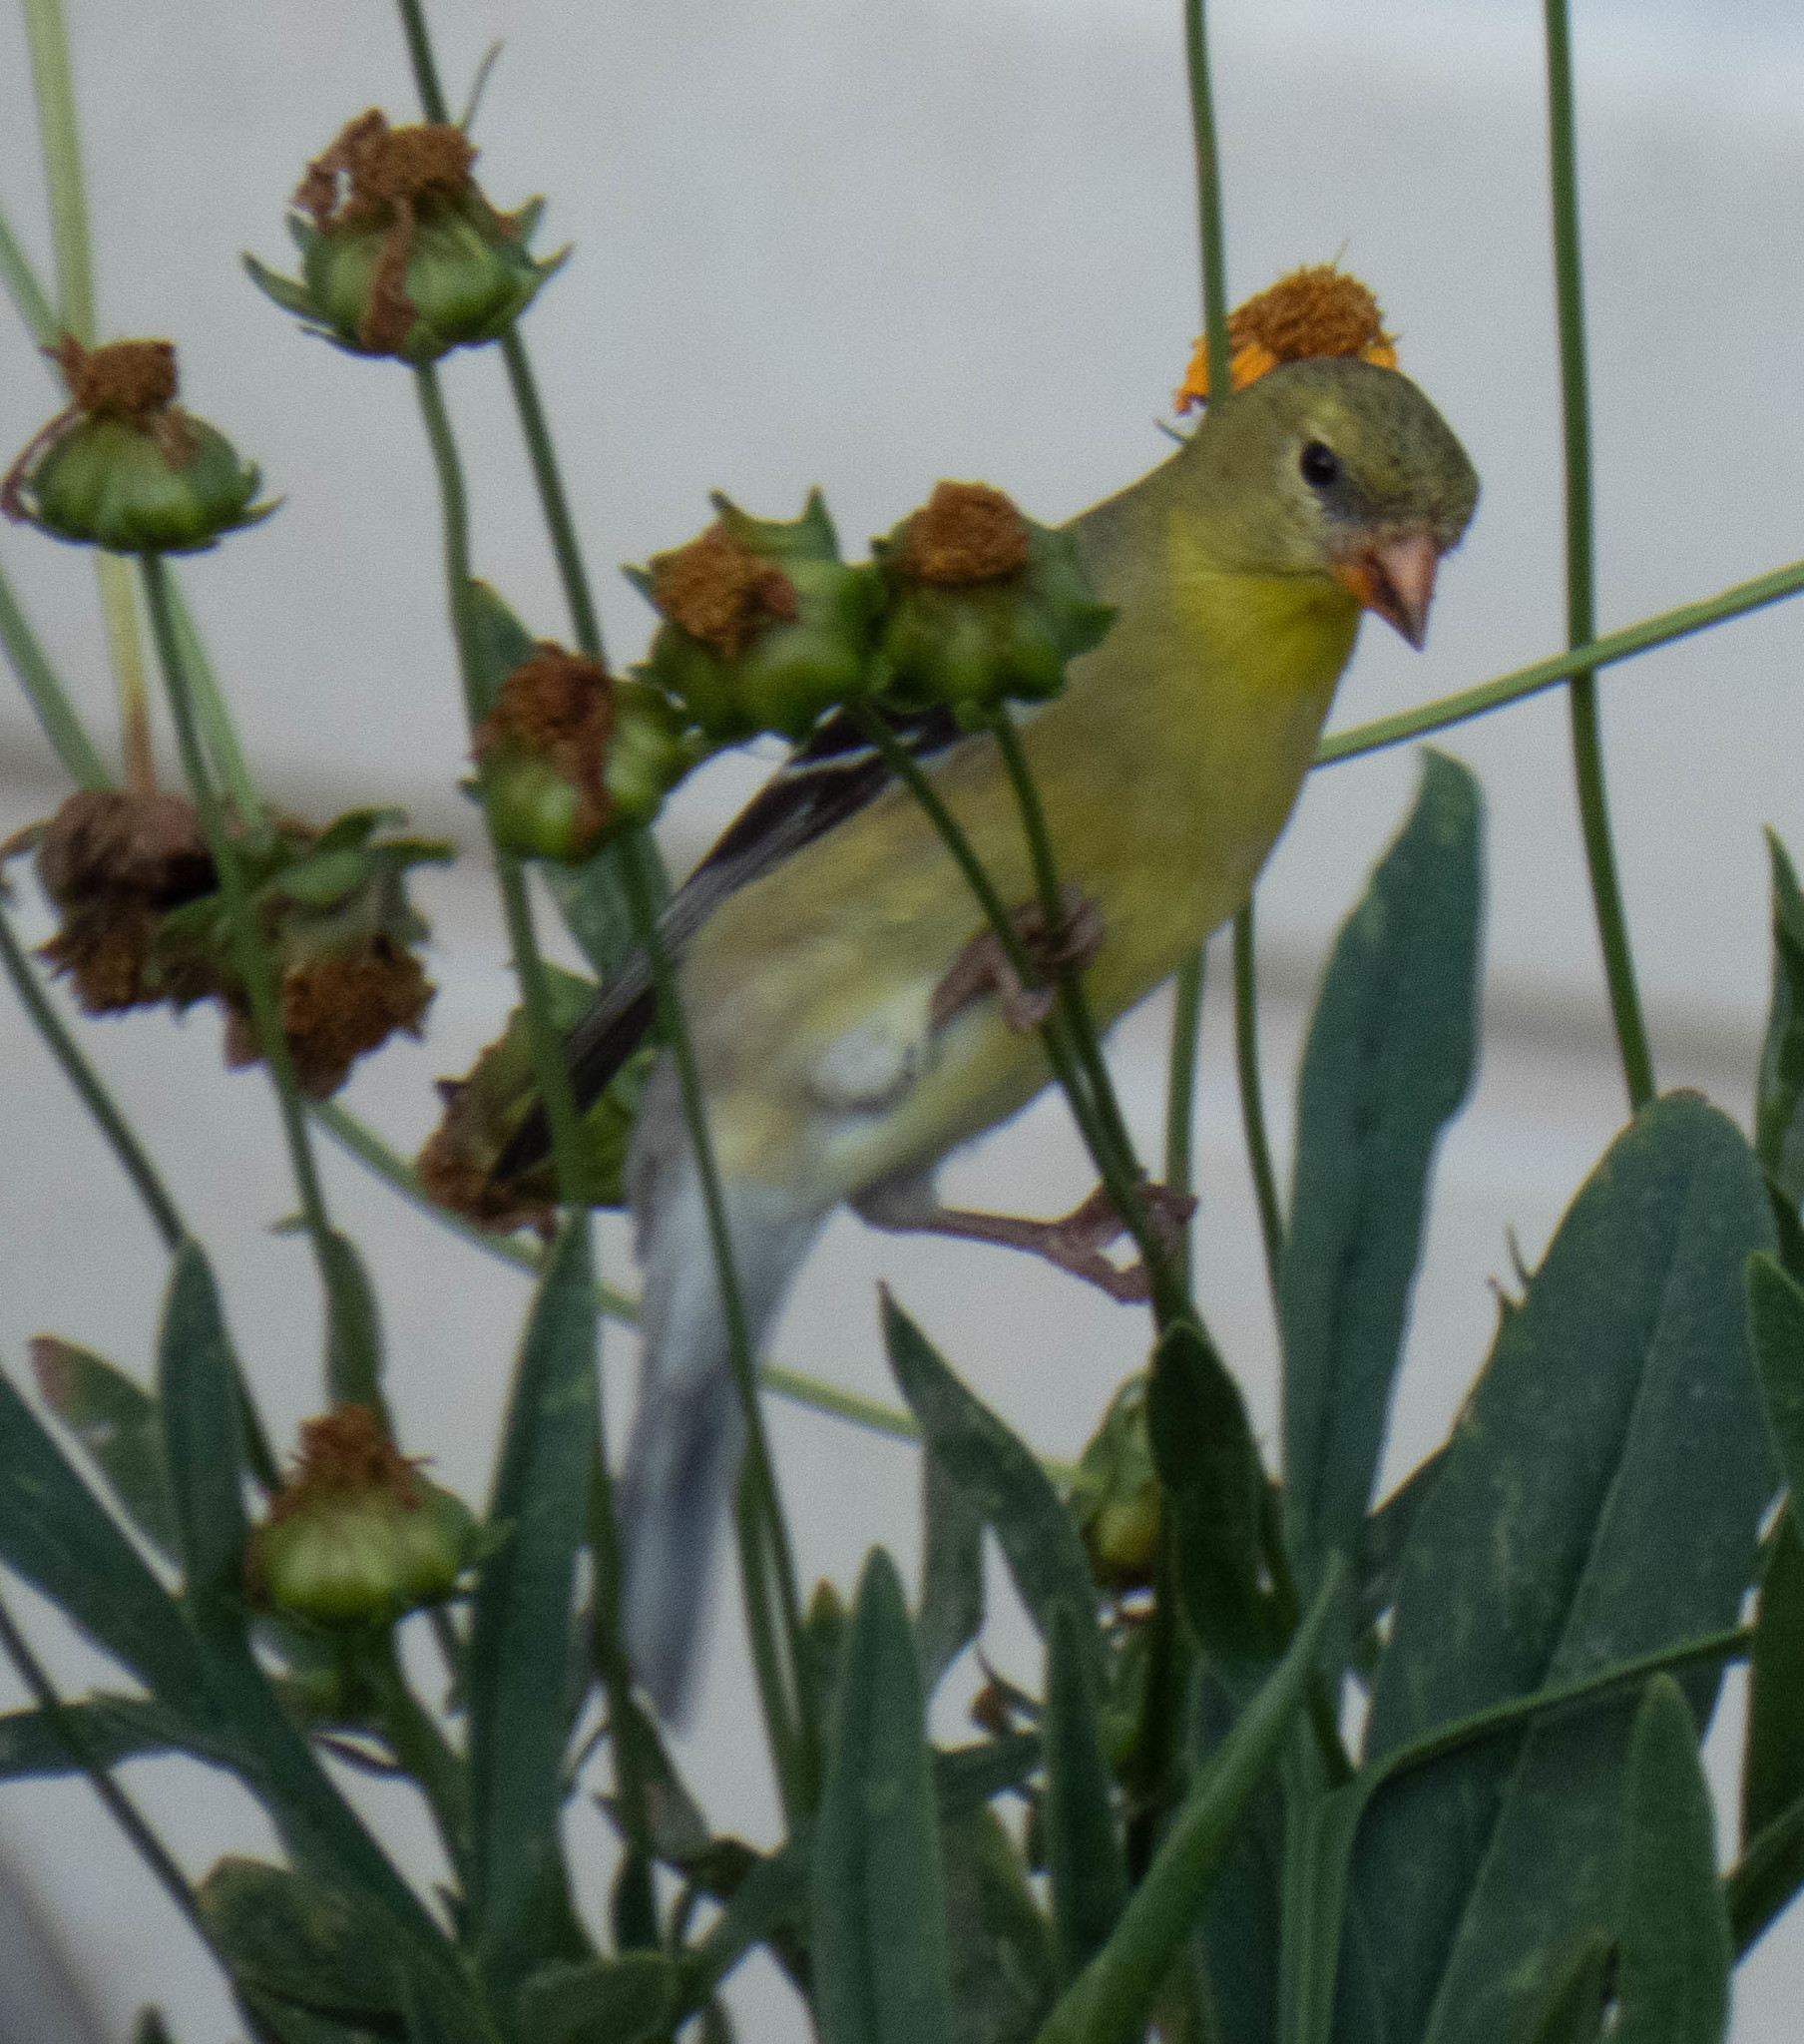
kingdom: Animalia
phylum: Chordata
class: Aves
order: Passeriformes
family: Fringillidae
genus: Spinus
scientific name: Spinus tristis
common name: American goldfinch
